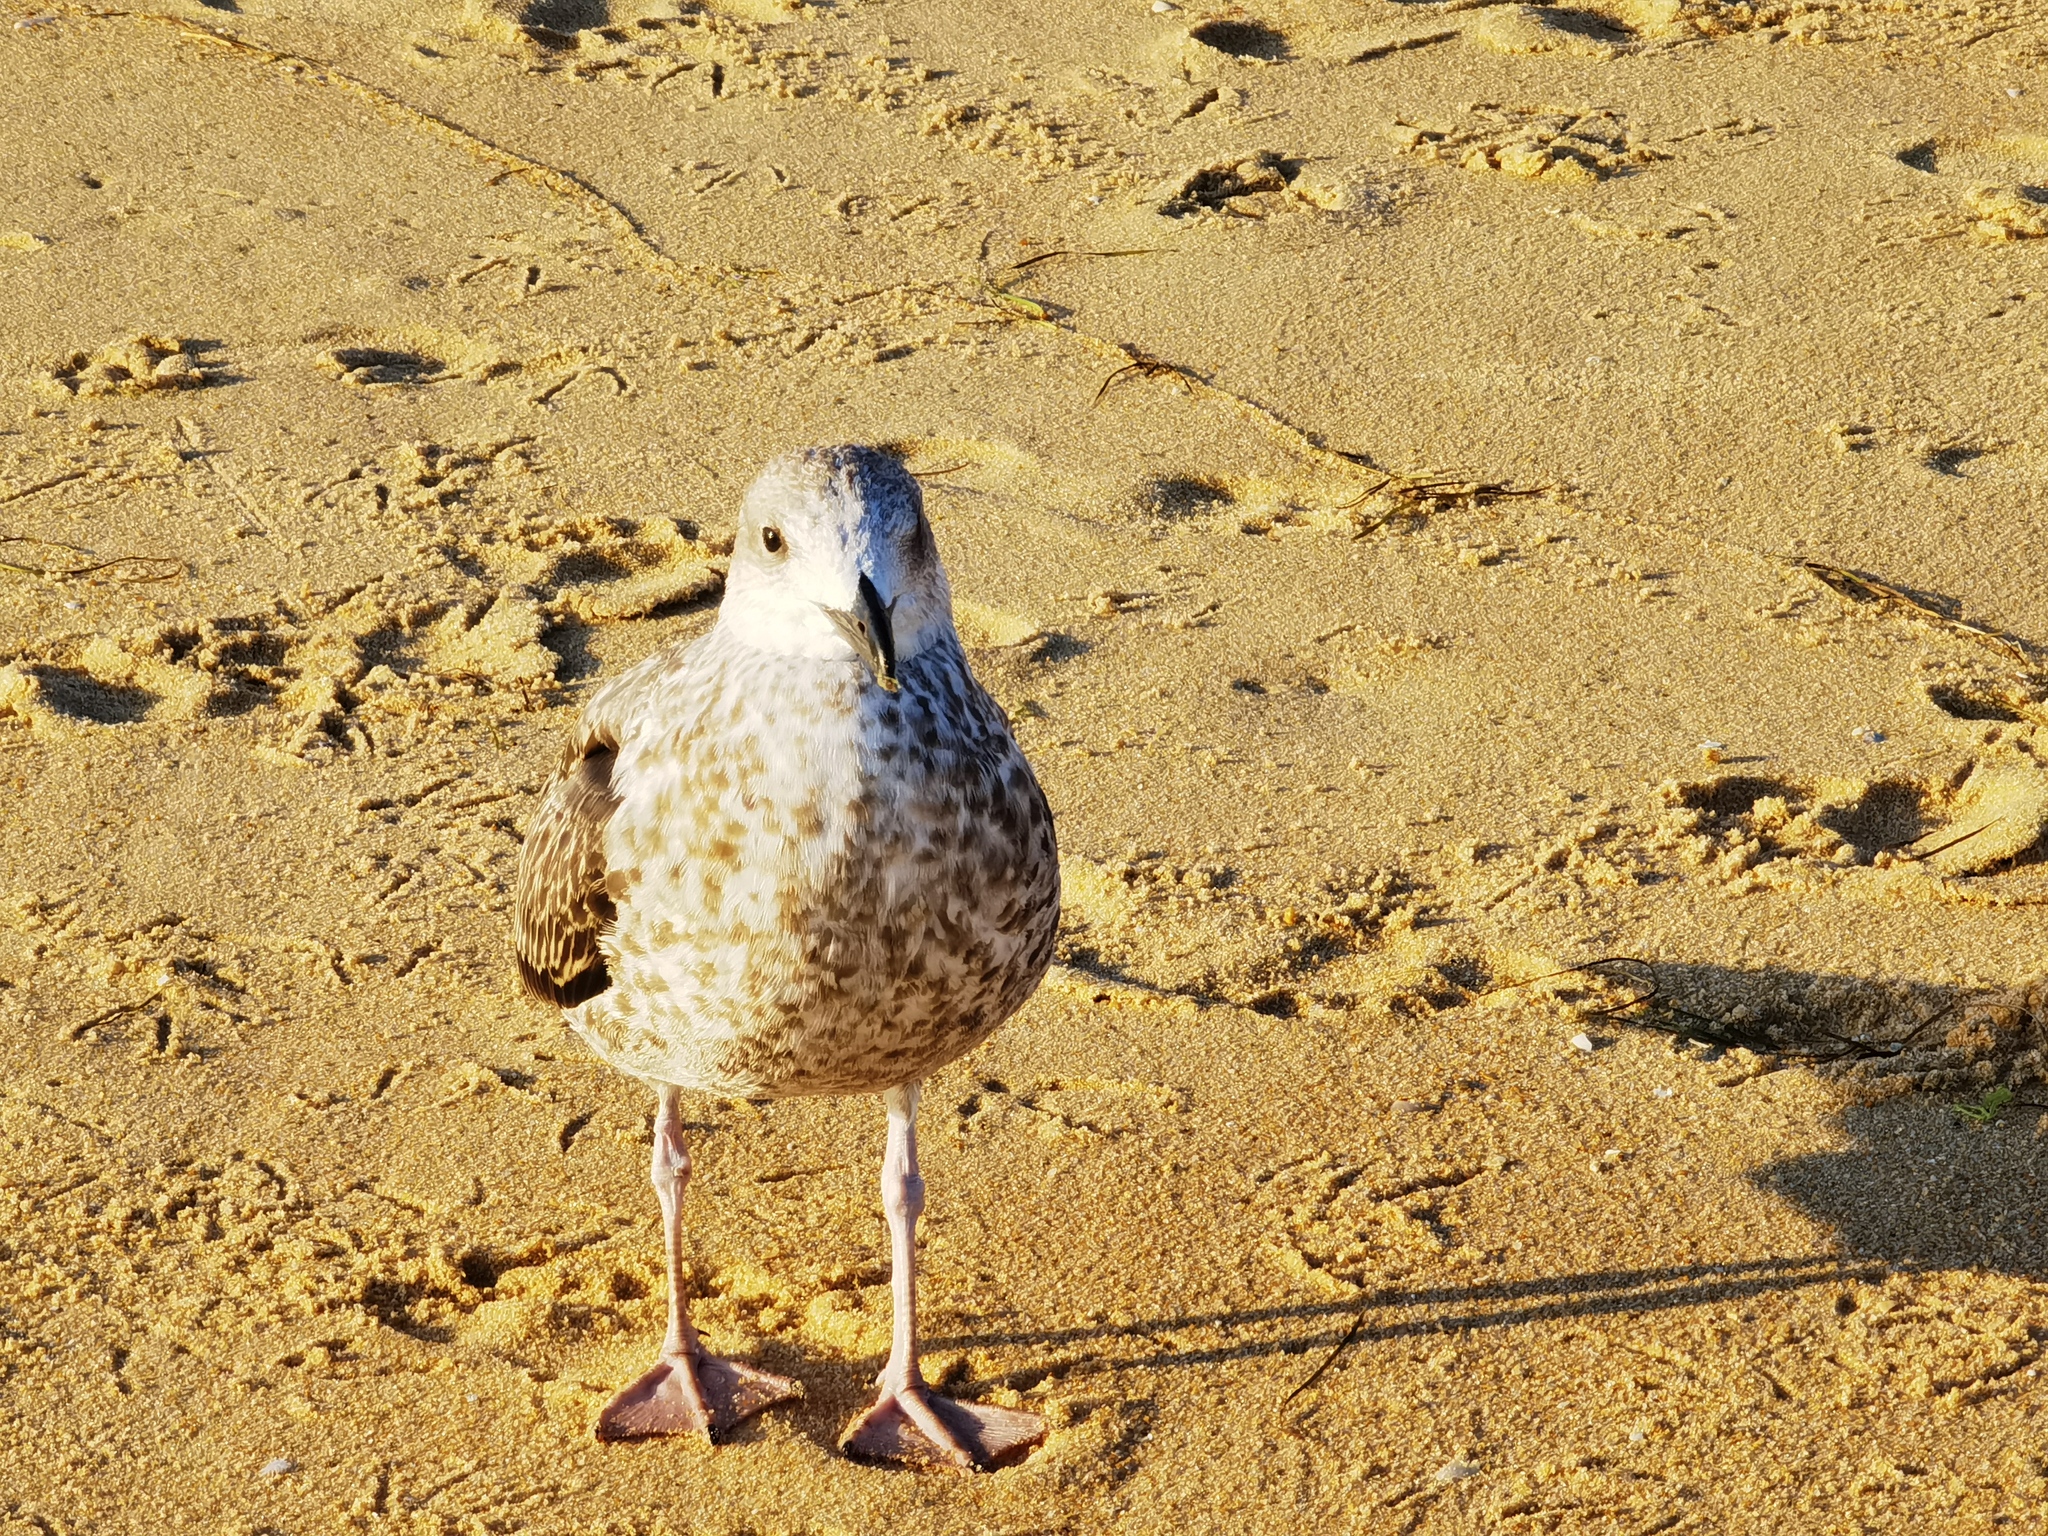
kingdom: Animalia
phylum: Chordata
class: Aves
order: Charadriiformes
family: Laridae
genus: Larus
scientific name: Larus michahellis
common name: Yellow-legged gull
